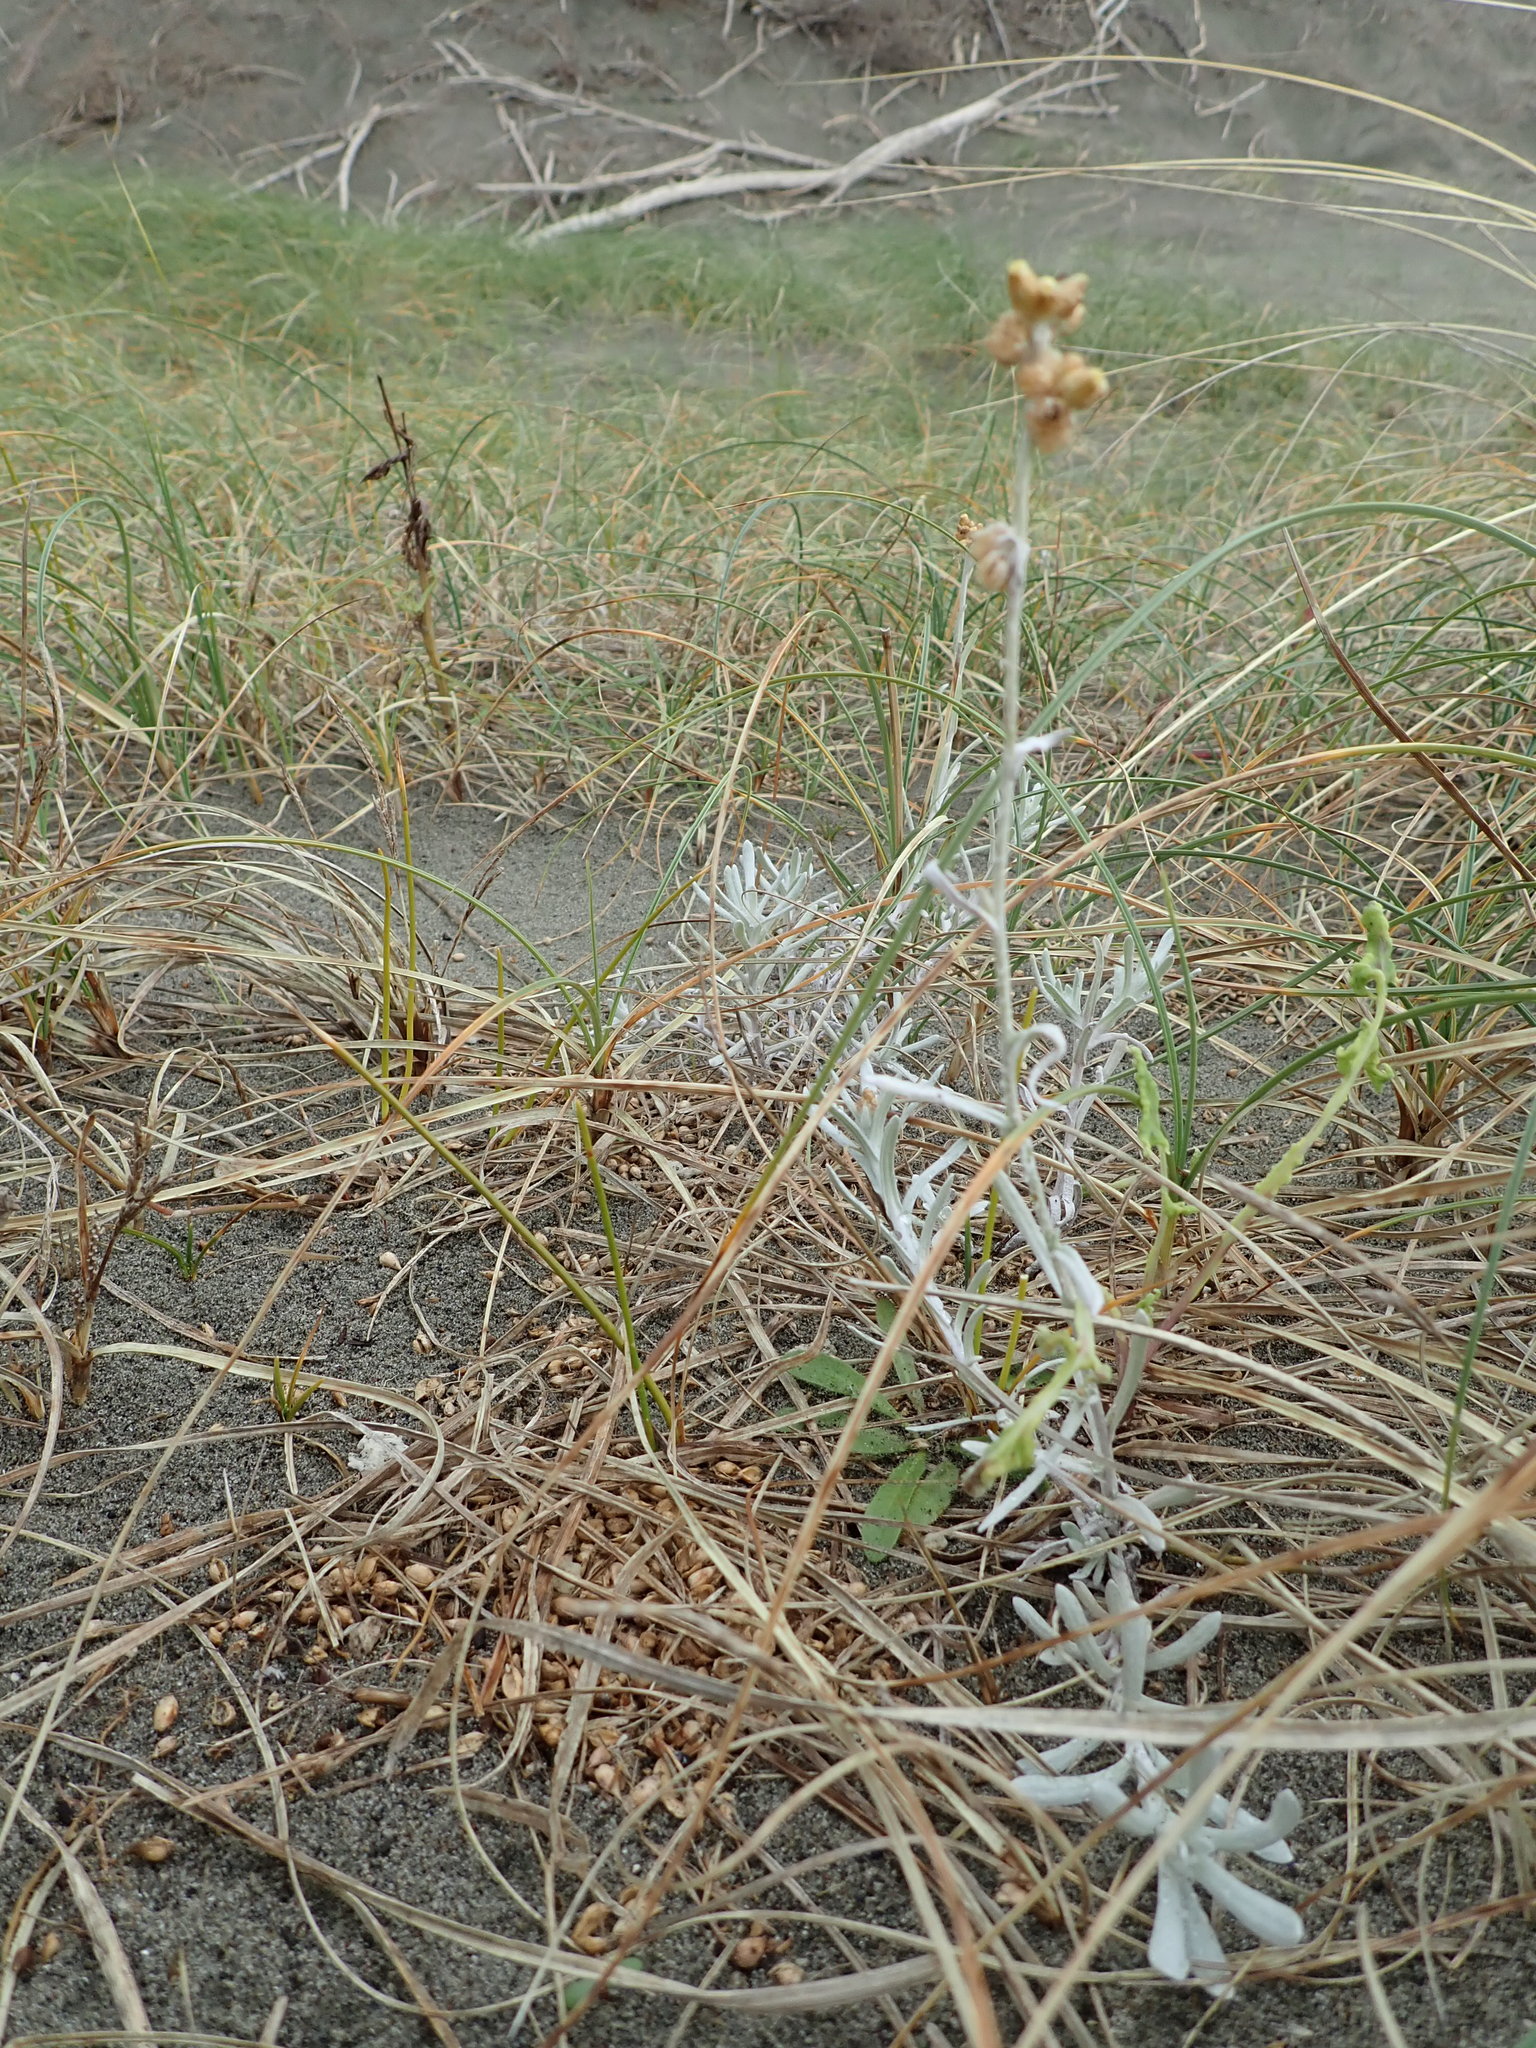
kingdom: Plantae
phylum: Tracheophyta
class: Magnoliopsida
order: Asterales
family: Asteraceae
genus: Helichrysum
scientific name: Helichrysum luteoalbum
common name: Daisy
